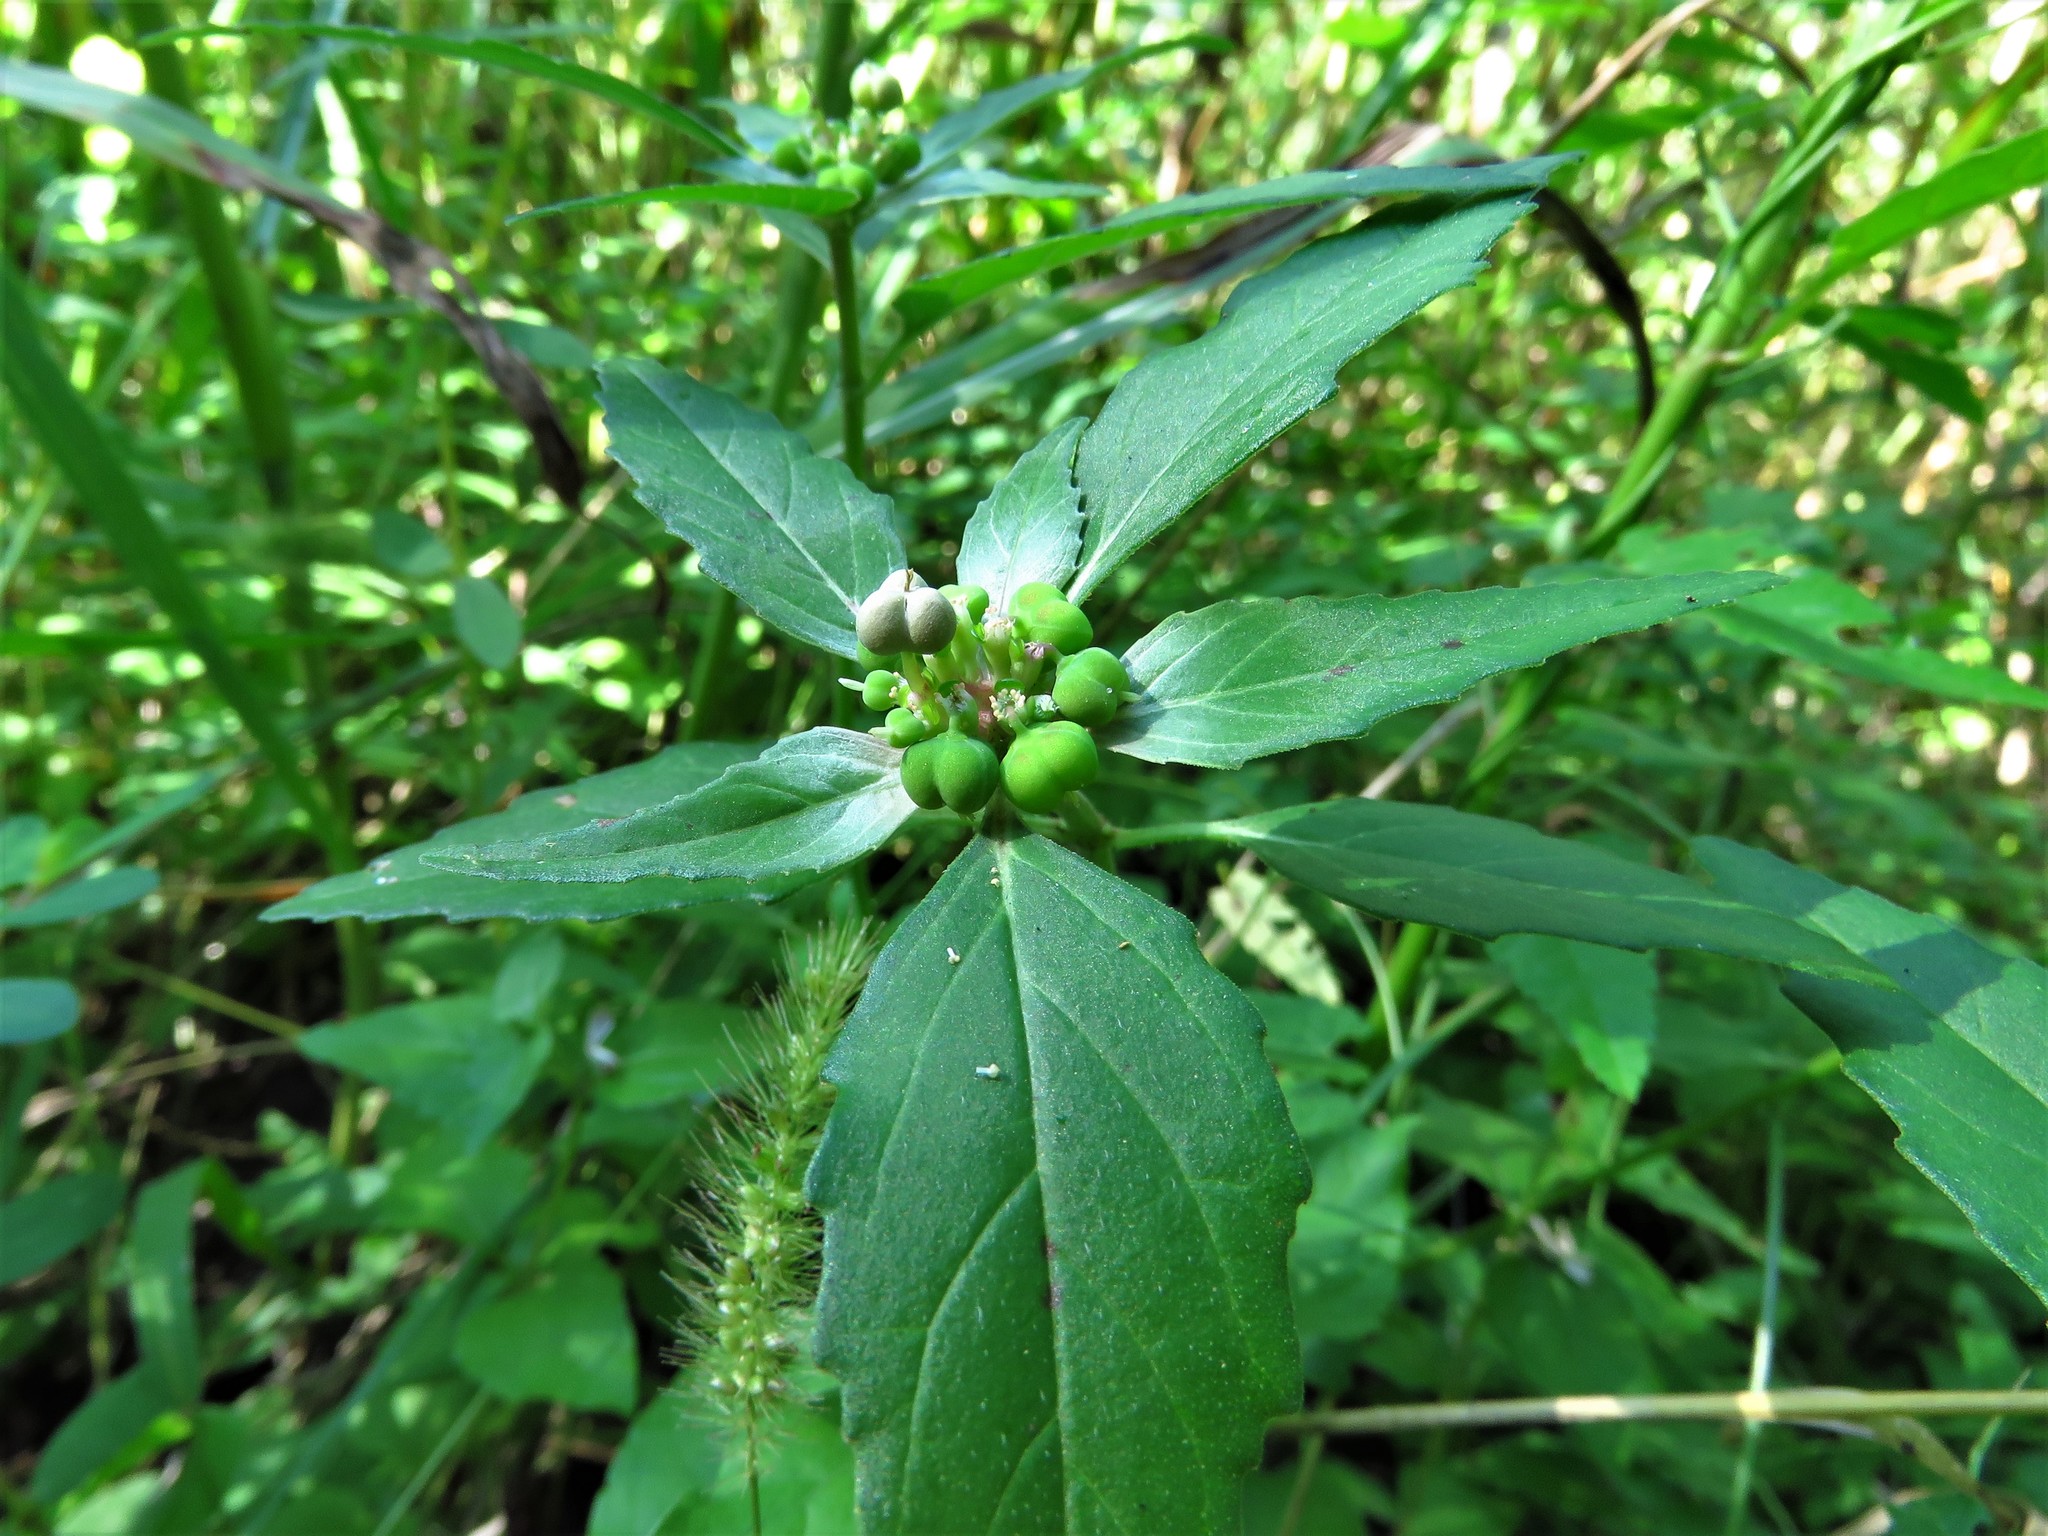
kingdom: Plantae
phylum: Tracheophyta
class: Magnoliopsida
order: Malpighiales
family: Euphorbiaceae
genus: Euphorbia
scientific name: Euphorbia dentata
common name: Dentate spurge
